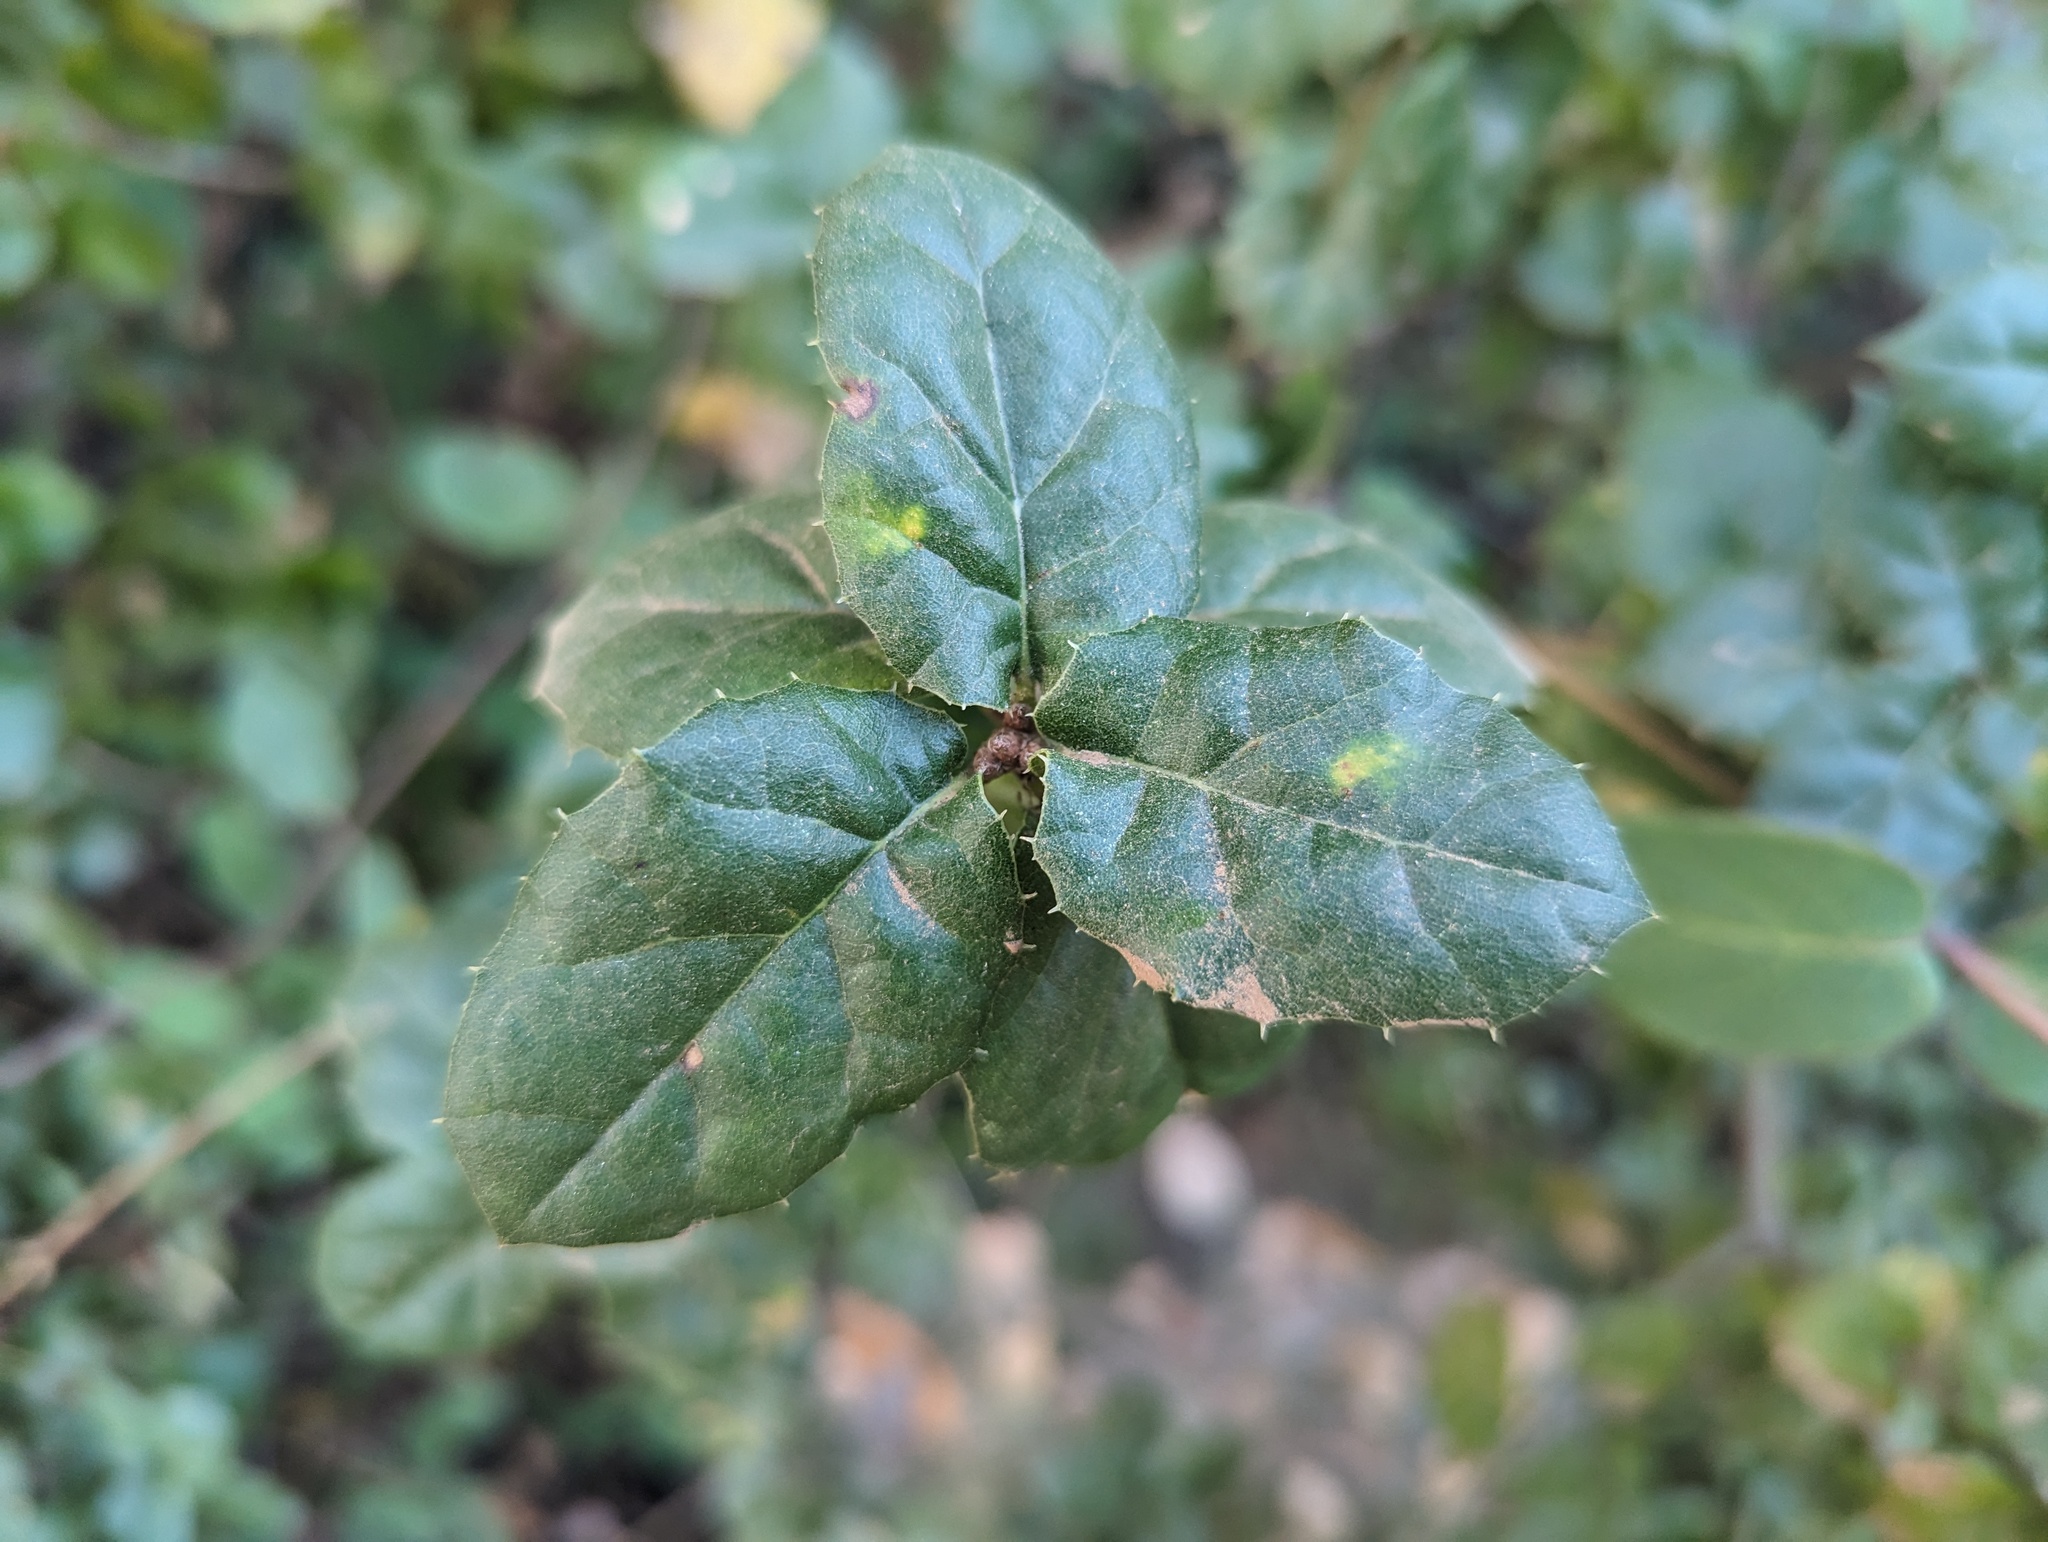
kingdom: Plantae
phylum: Tracheophyta
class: Magnoliopsida
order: Fagales
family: Fagaceae
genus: Quercus
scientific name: Quercus agrifolia
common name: California live oak
